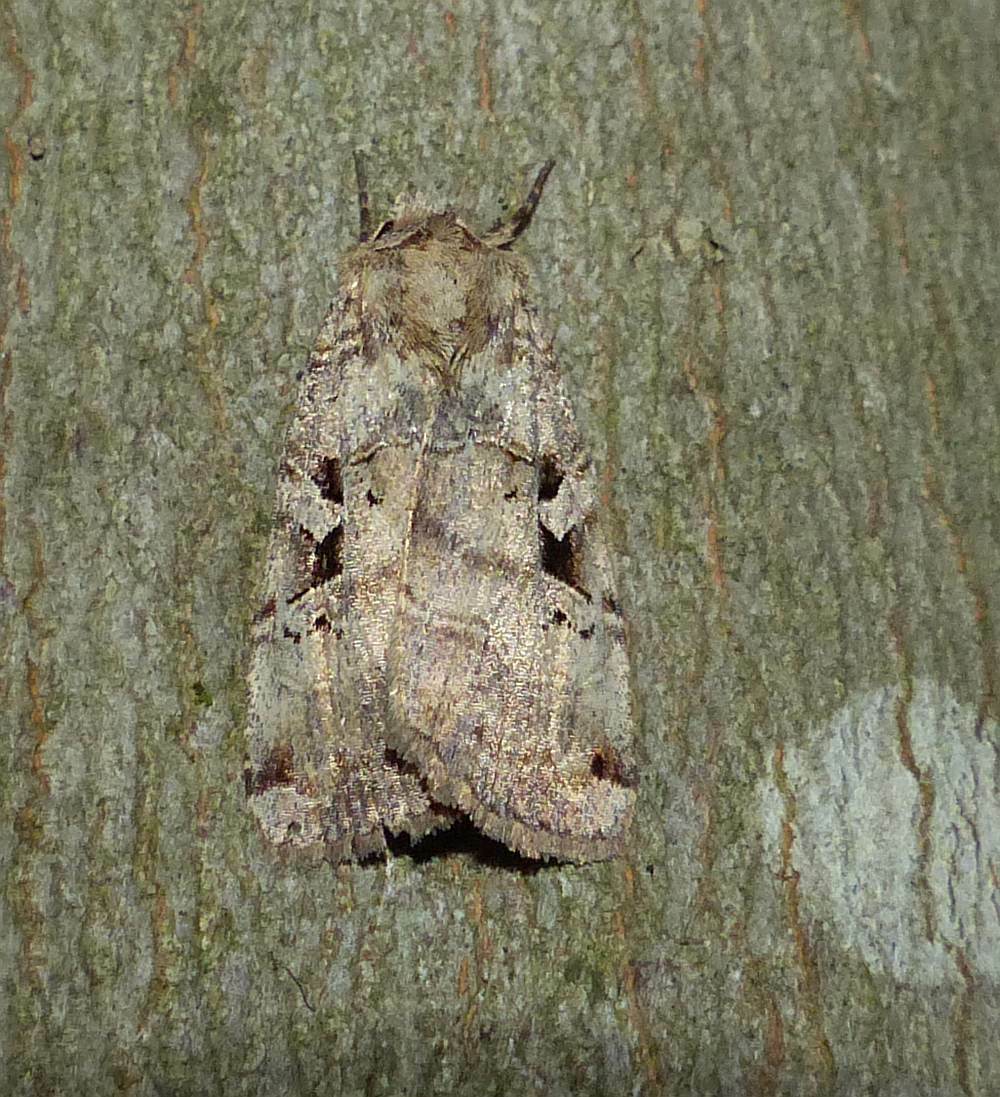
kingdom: Animalia
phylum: Arthropoda
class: Insecta
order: Lepidoptera
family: Noctuidae
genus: Xestia
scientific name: Xestia normaniana
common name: Norman's dart moth
